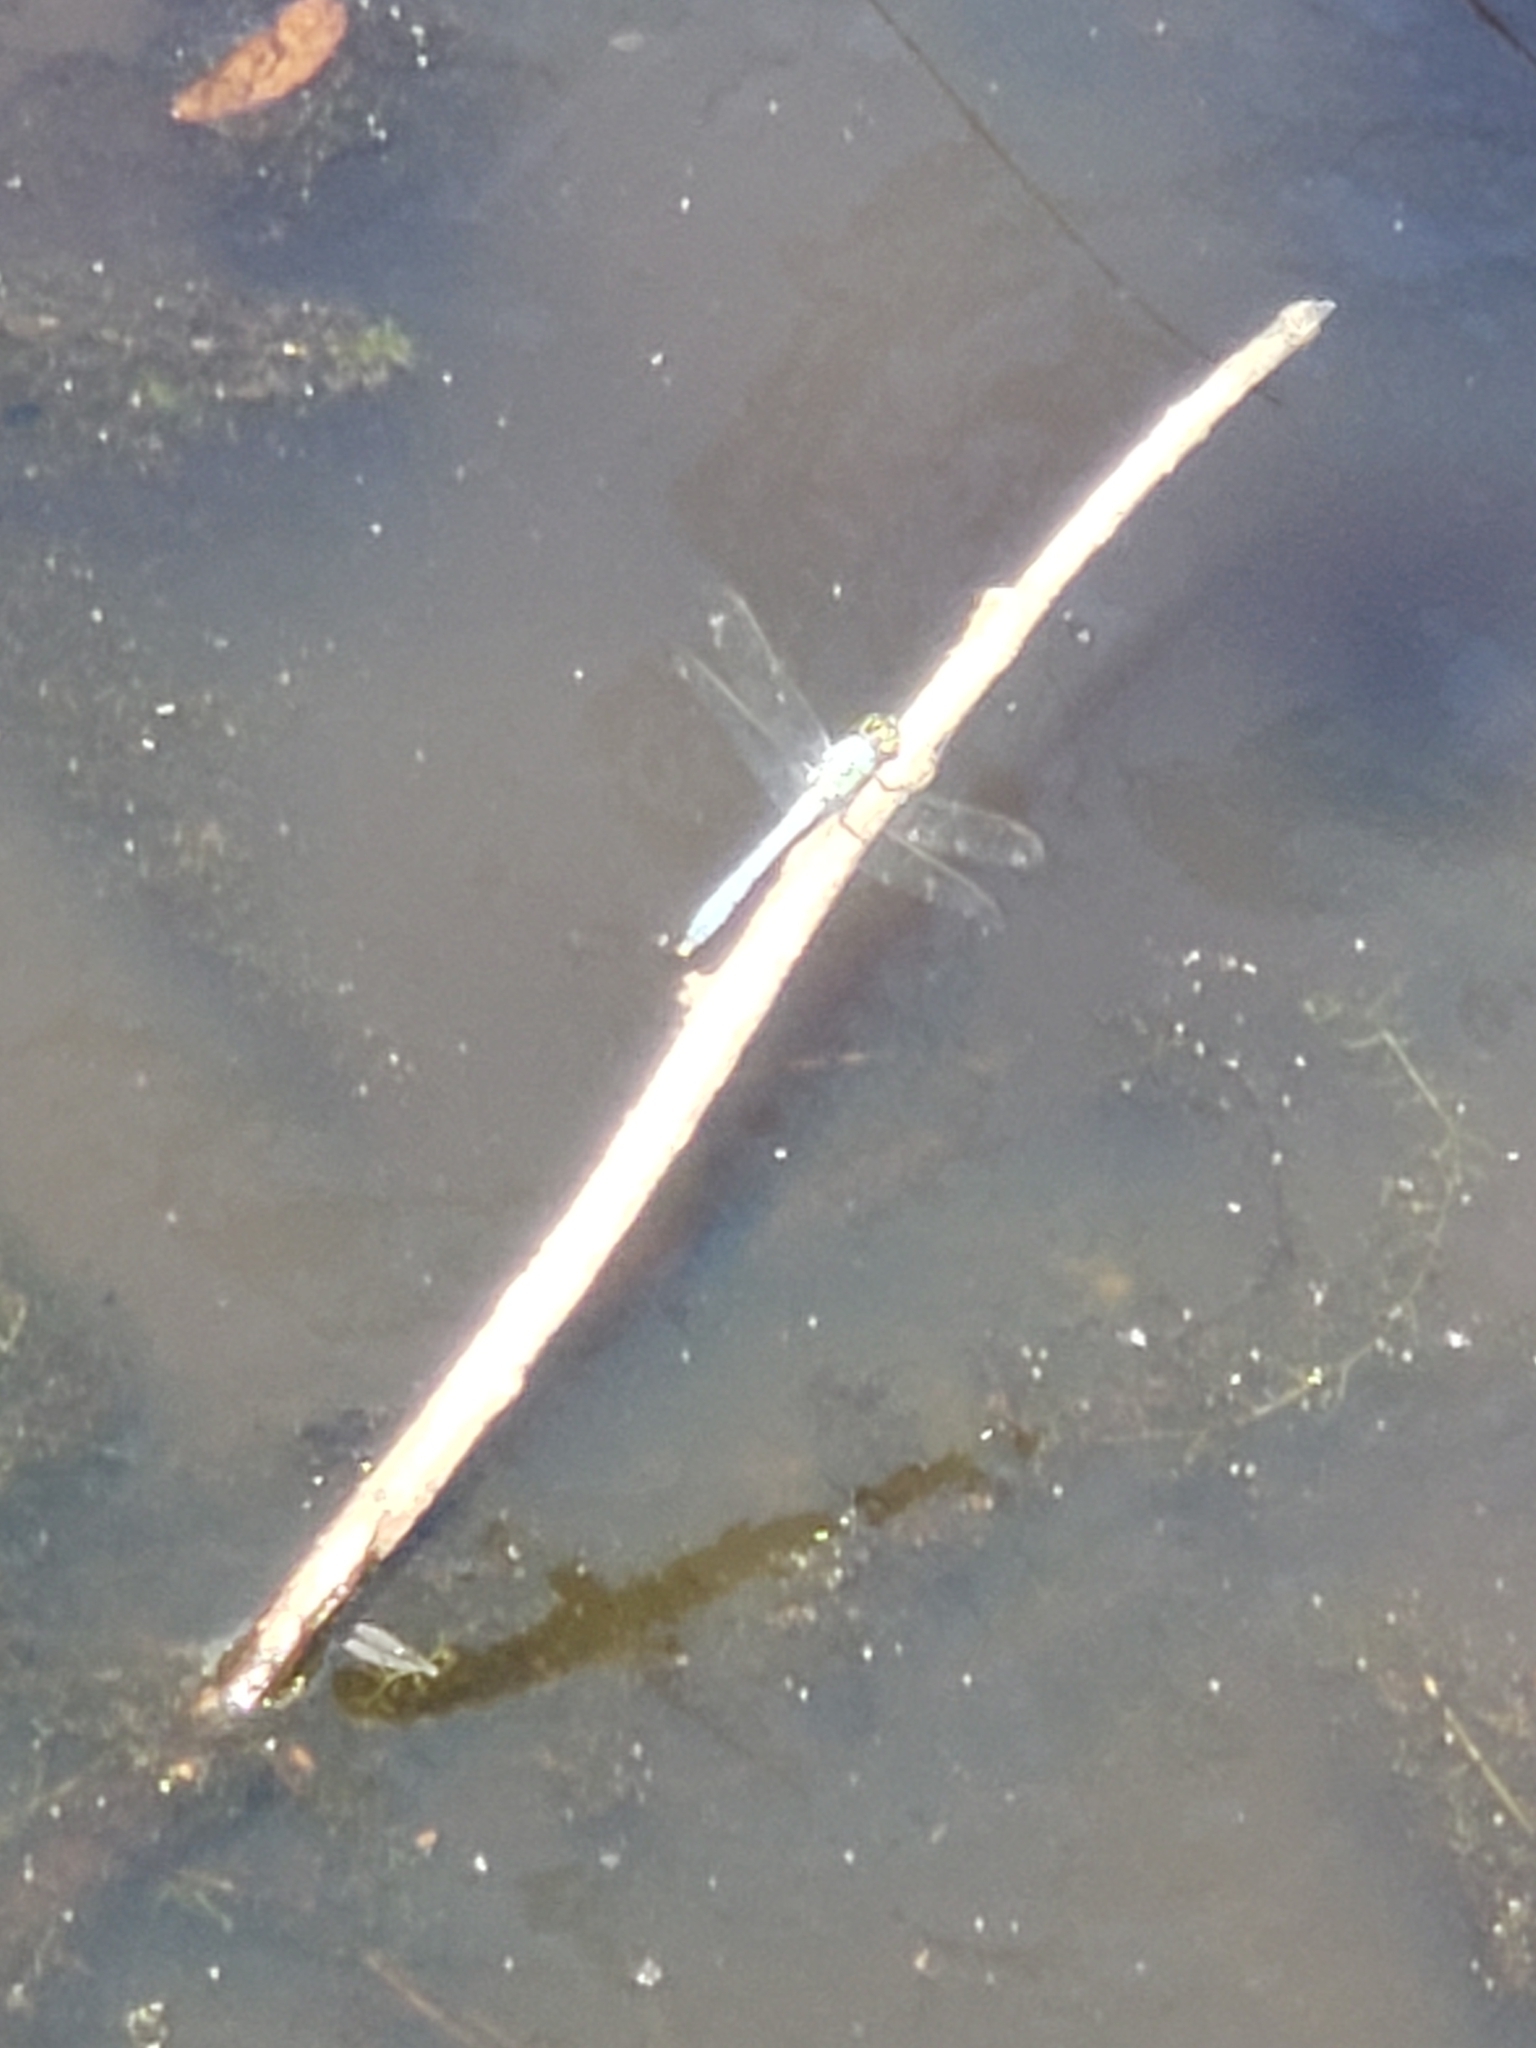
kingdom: Animalia
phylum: Arthropoda
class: Insecta
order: Odonata
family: Libellulidae
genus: Erythemis
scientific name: Erythemis simplicicollis
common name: Eastern pondhawk
